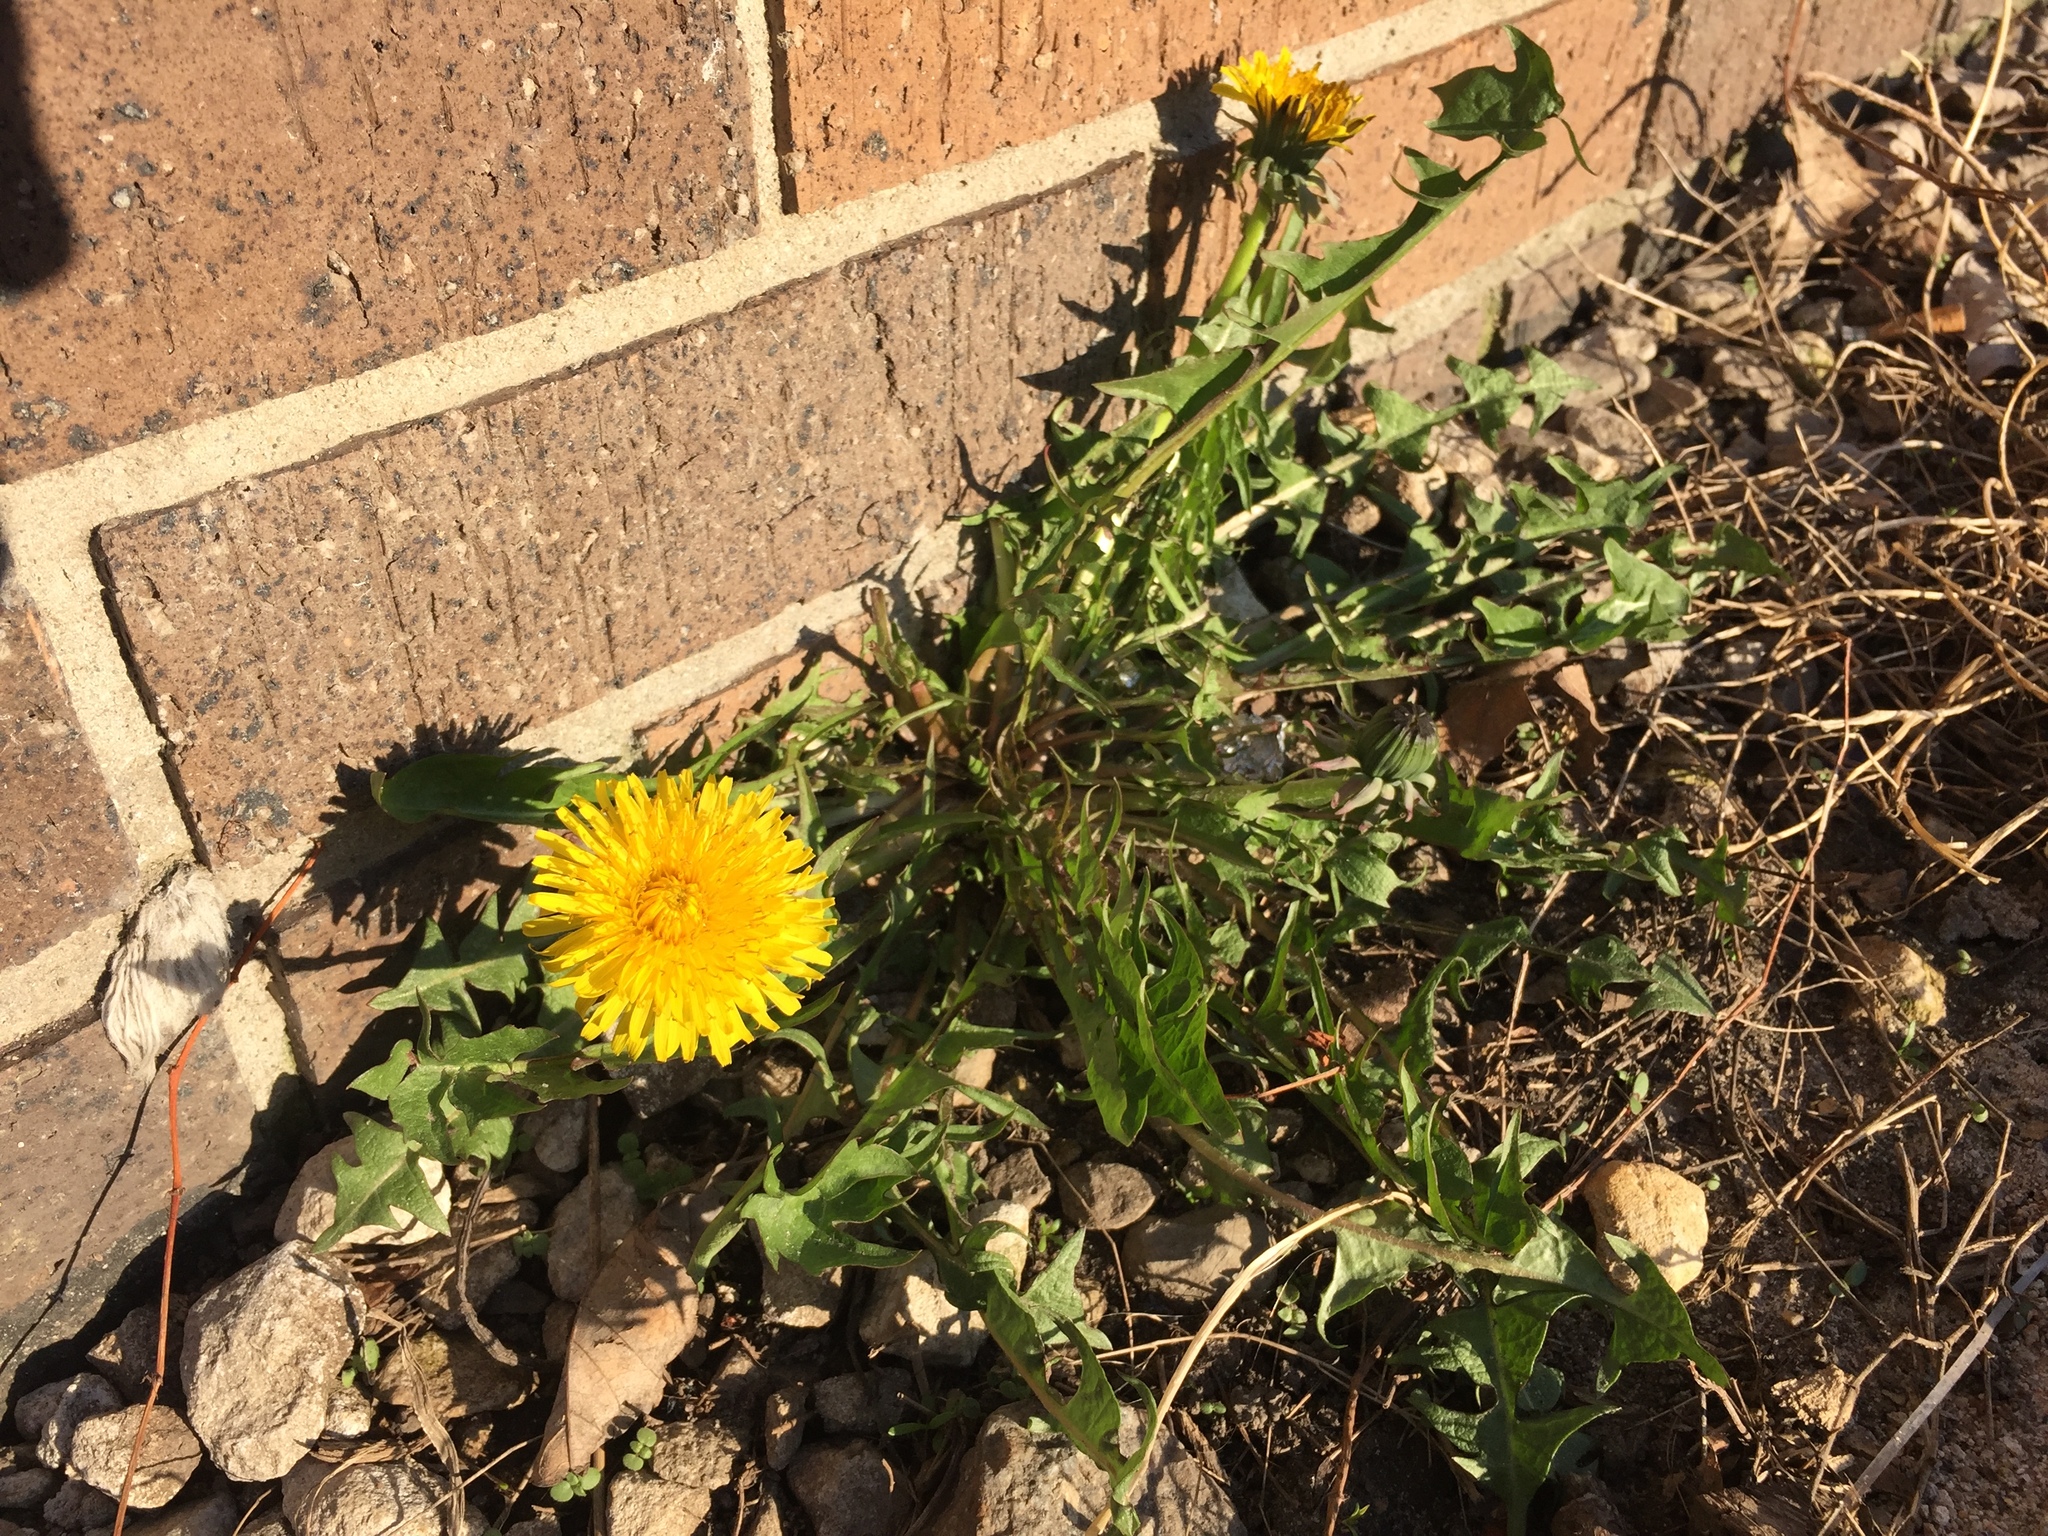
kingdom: Plantae
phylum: Tracheophyta
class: Magnoliopsida
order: Asterales
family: Asteraceae
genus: Taraxacum
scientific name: Taraxacum officinale
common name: Common dandelion
